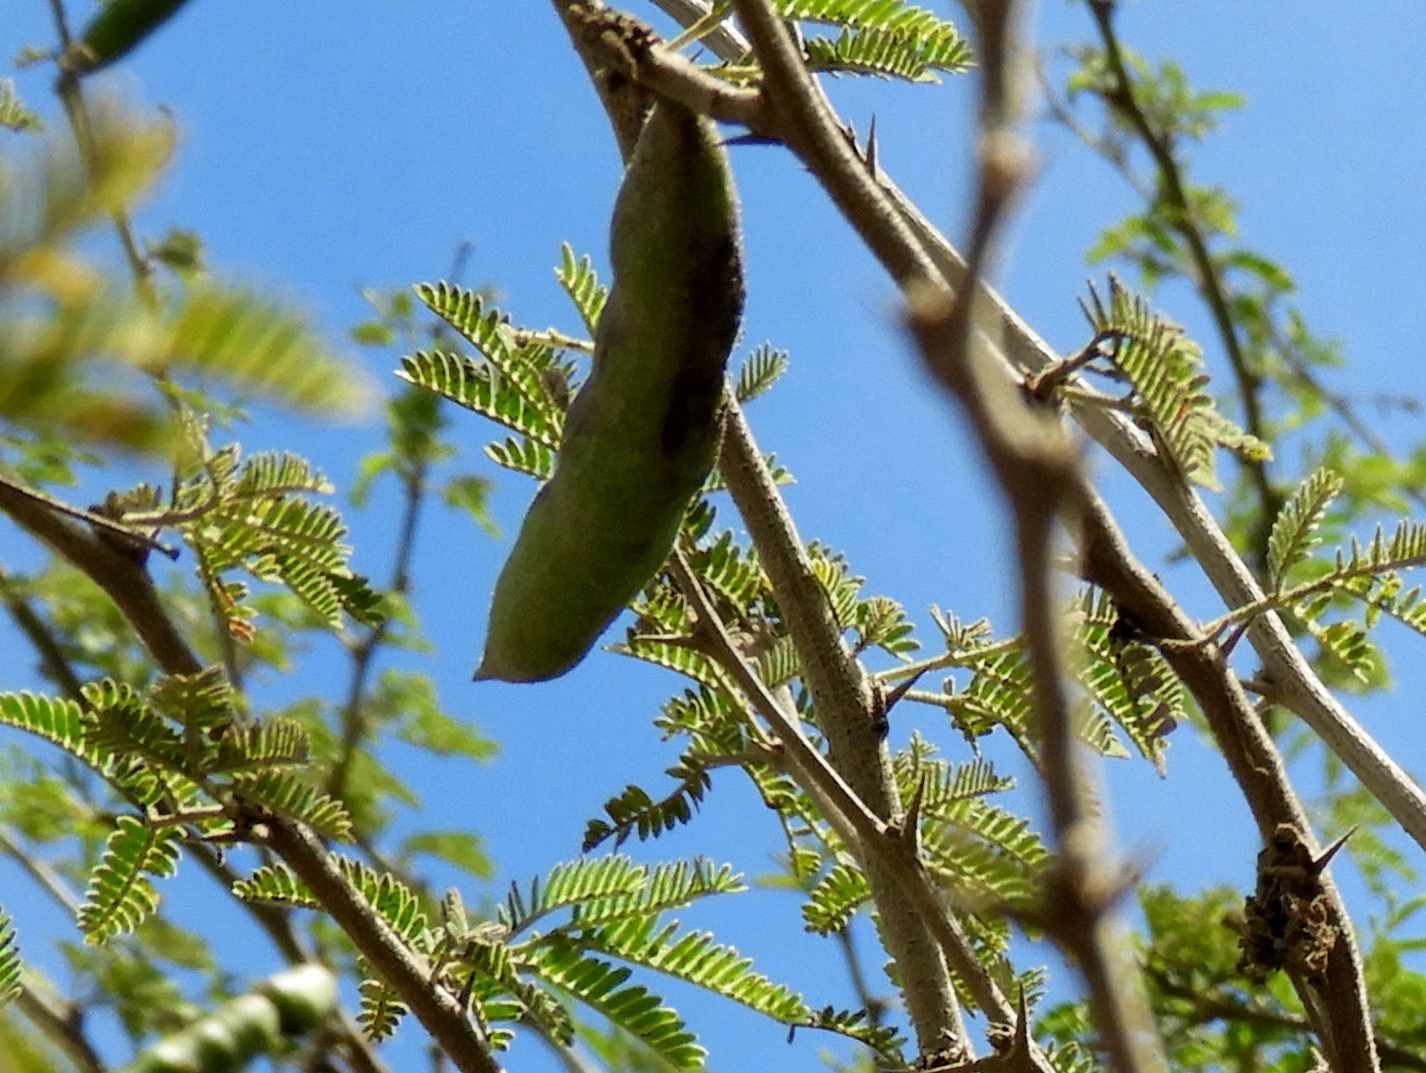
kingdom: Plantae
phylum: Tracheophyta
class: Magnoliopsida
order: Fabales
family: Fabaceae
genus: Vachellia
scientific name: Vachellia farnesiana
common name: Sweet acacia
